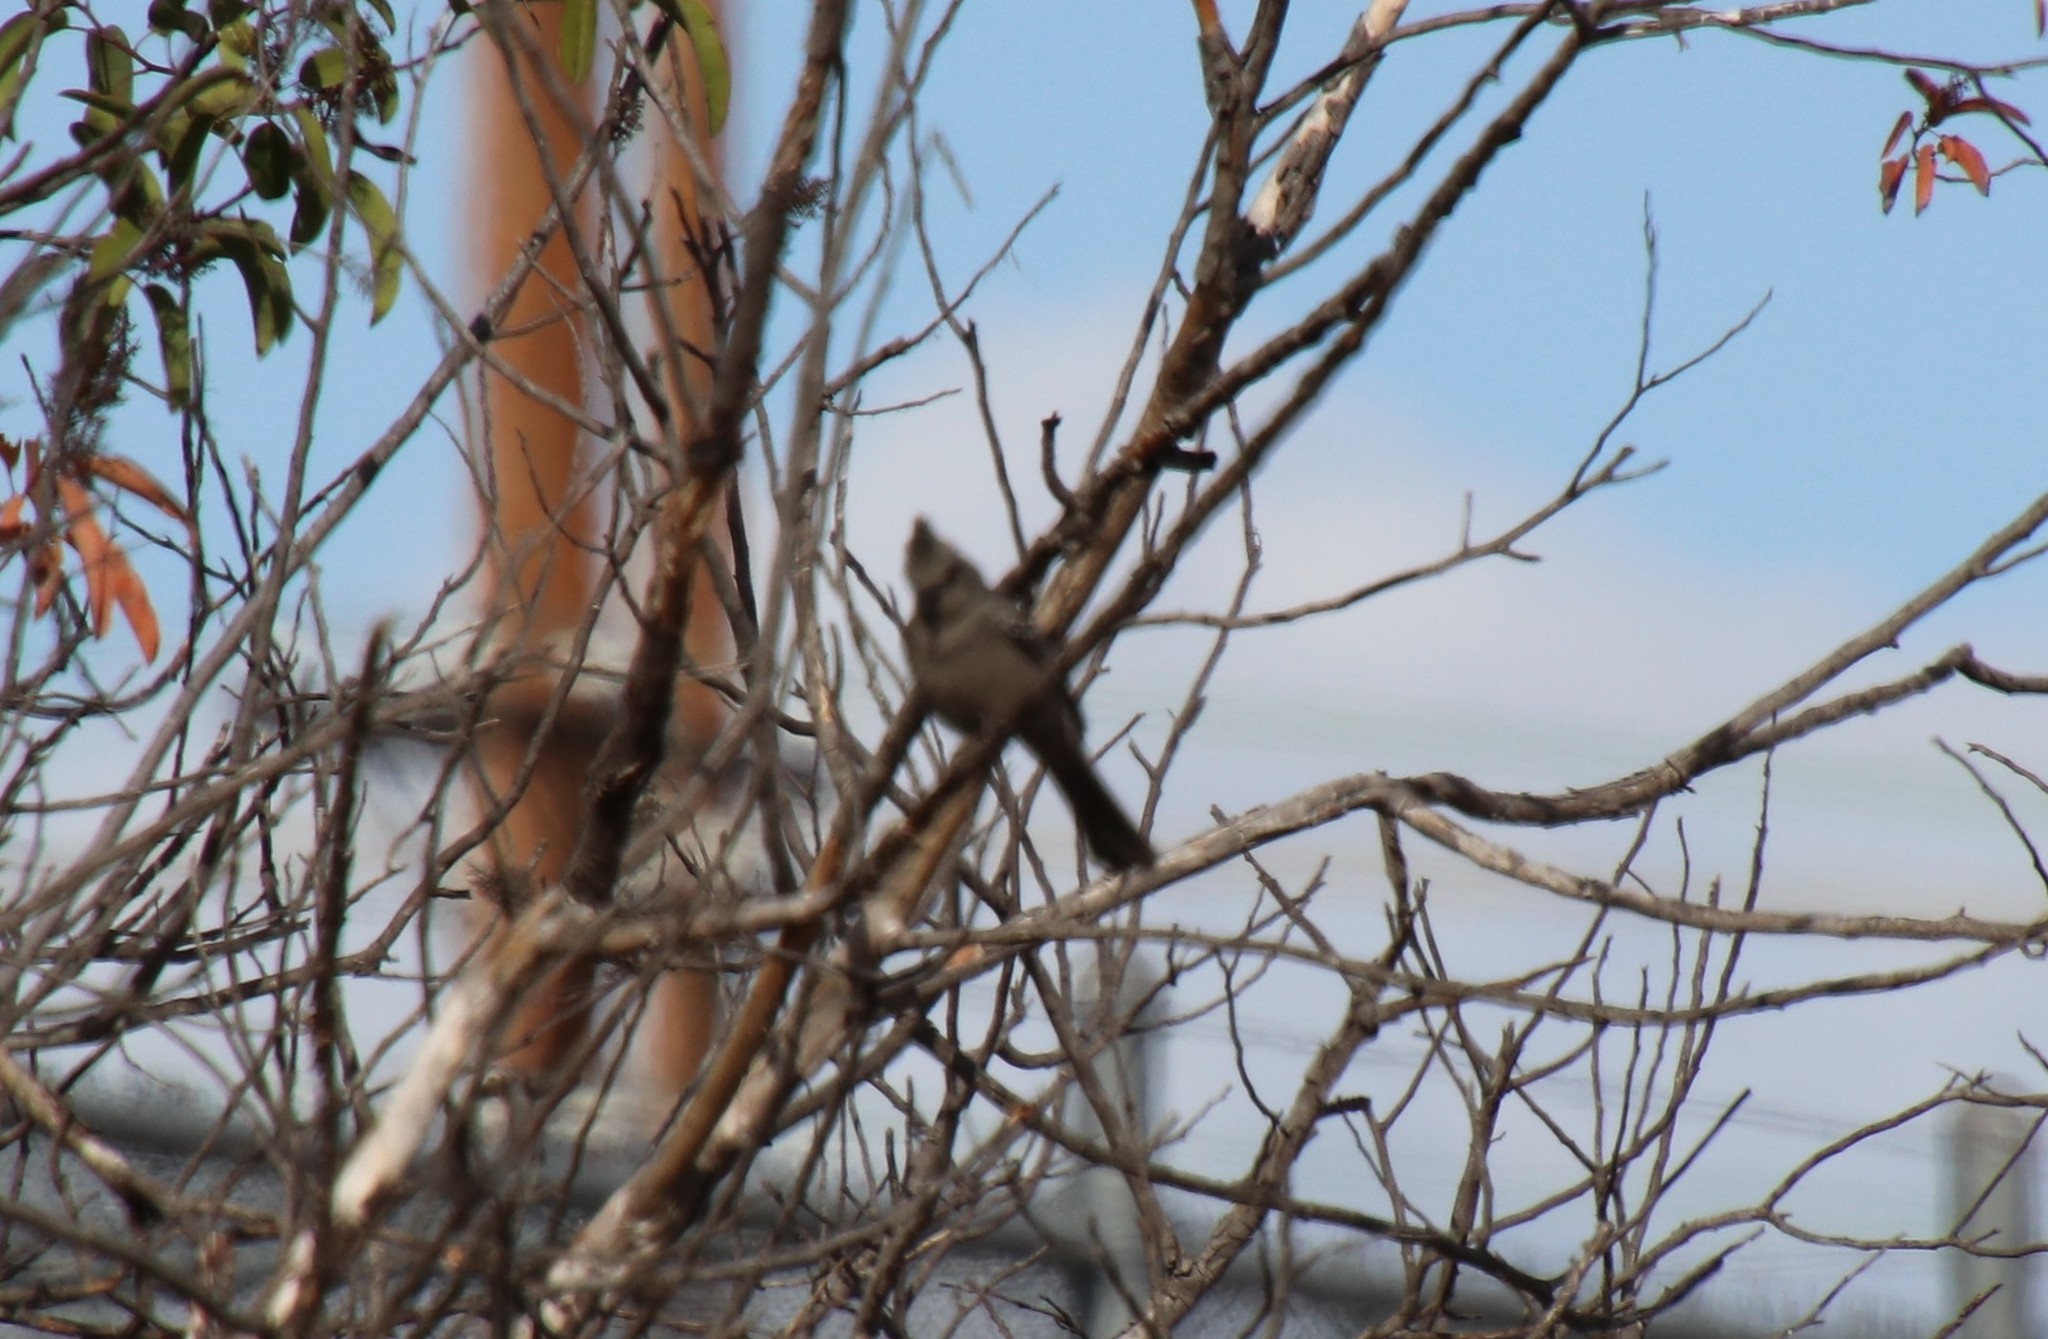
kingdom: Animalia
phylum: Chordata
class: Aves
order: Passeriformes
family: Ptilogonatidae
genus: Phainopepla
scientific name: Phainopepla nitens
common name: Phainopepla
